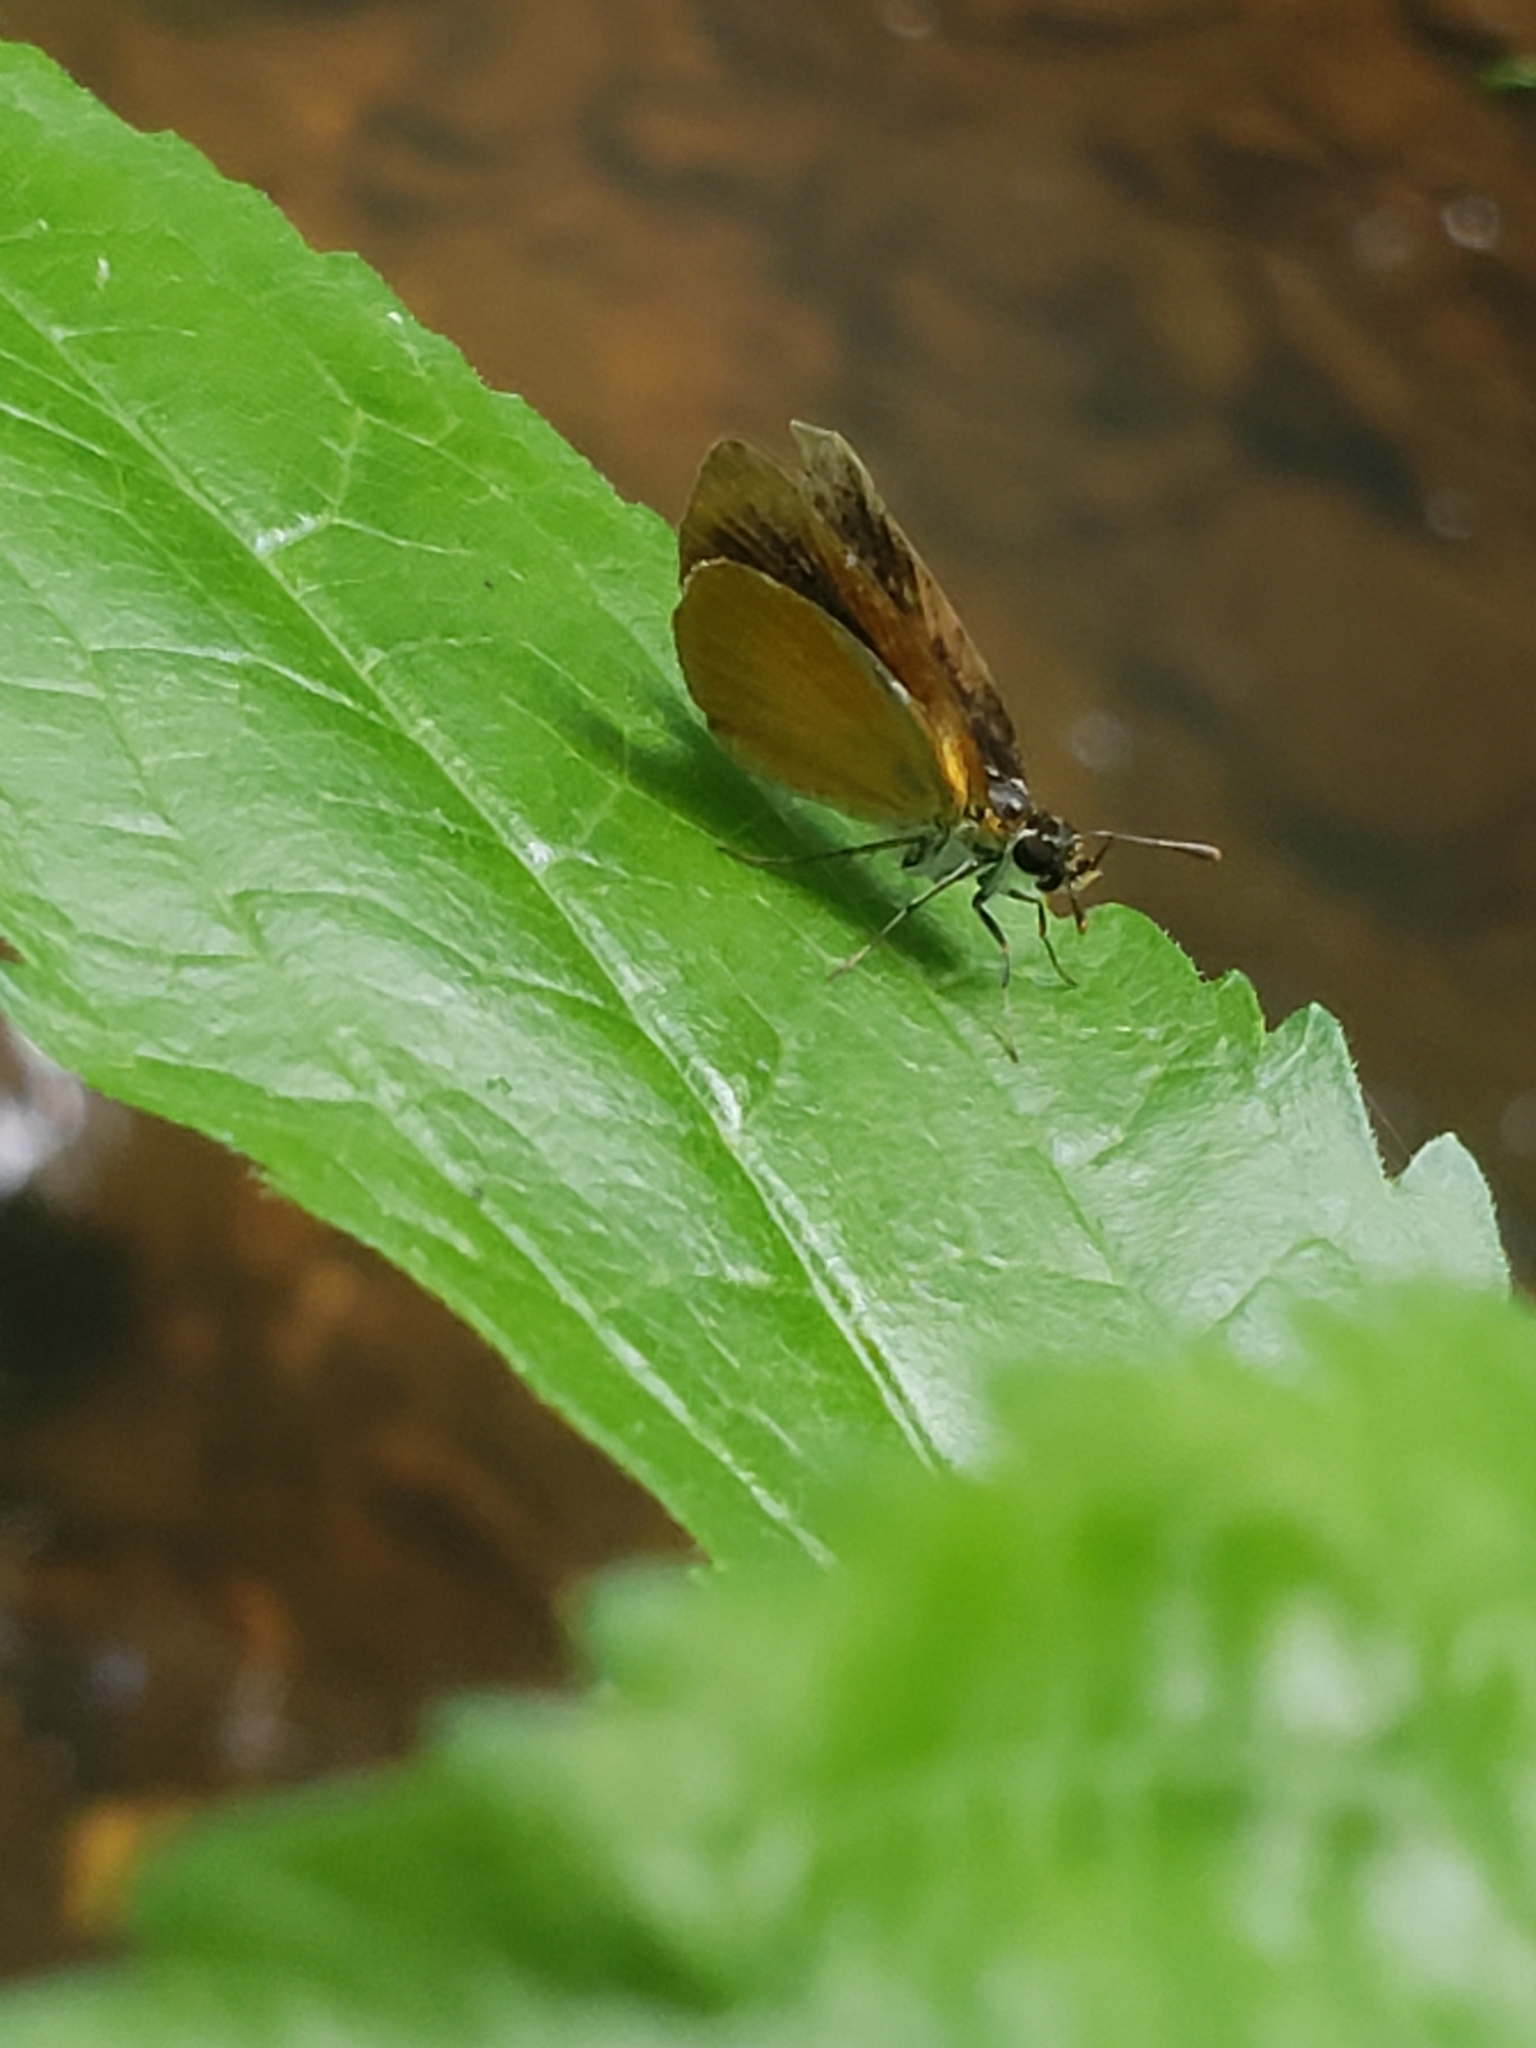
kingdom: Animalia
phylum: Arthropoda
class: Insecta
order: Lepidoptera
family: Hesperiidae
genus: Ancyloxypha
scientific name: Ancyloxypha numitor
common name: Least skipper
